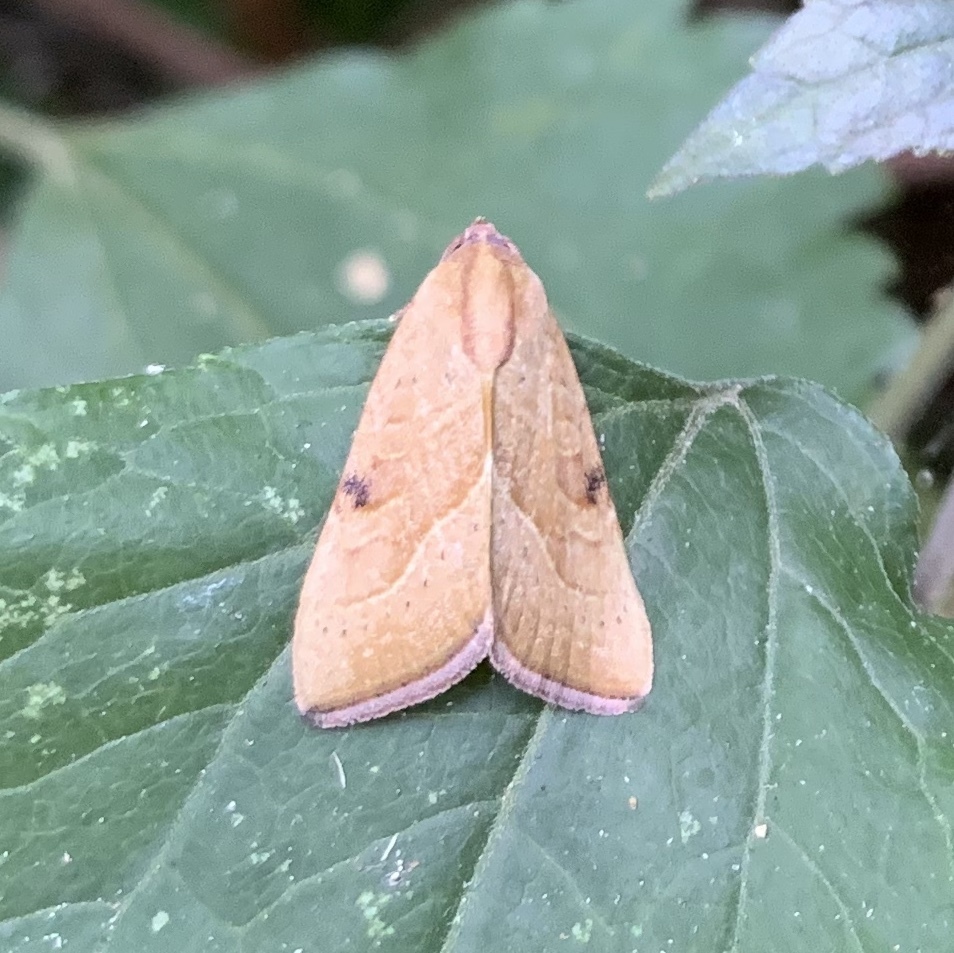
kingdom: Animalia
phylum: Arthropoda
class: Insecta
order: Lepidoptera
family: Noctuidae
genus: Galgula
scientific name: Galgula partita
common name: Wedgeling
